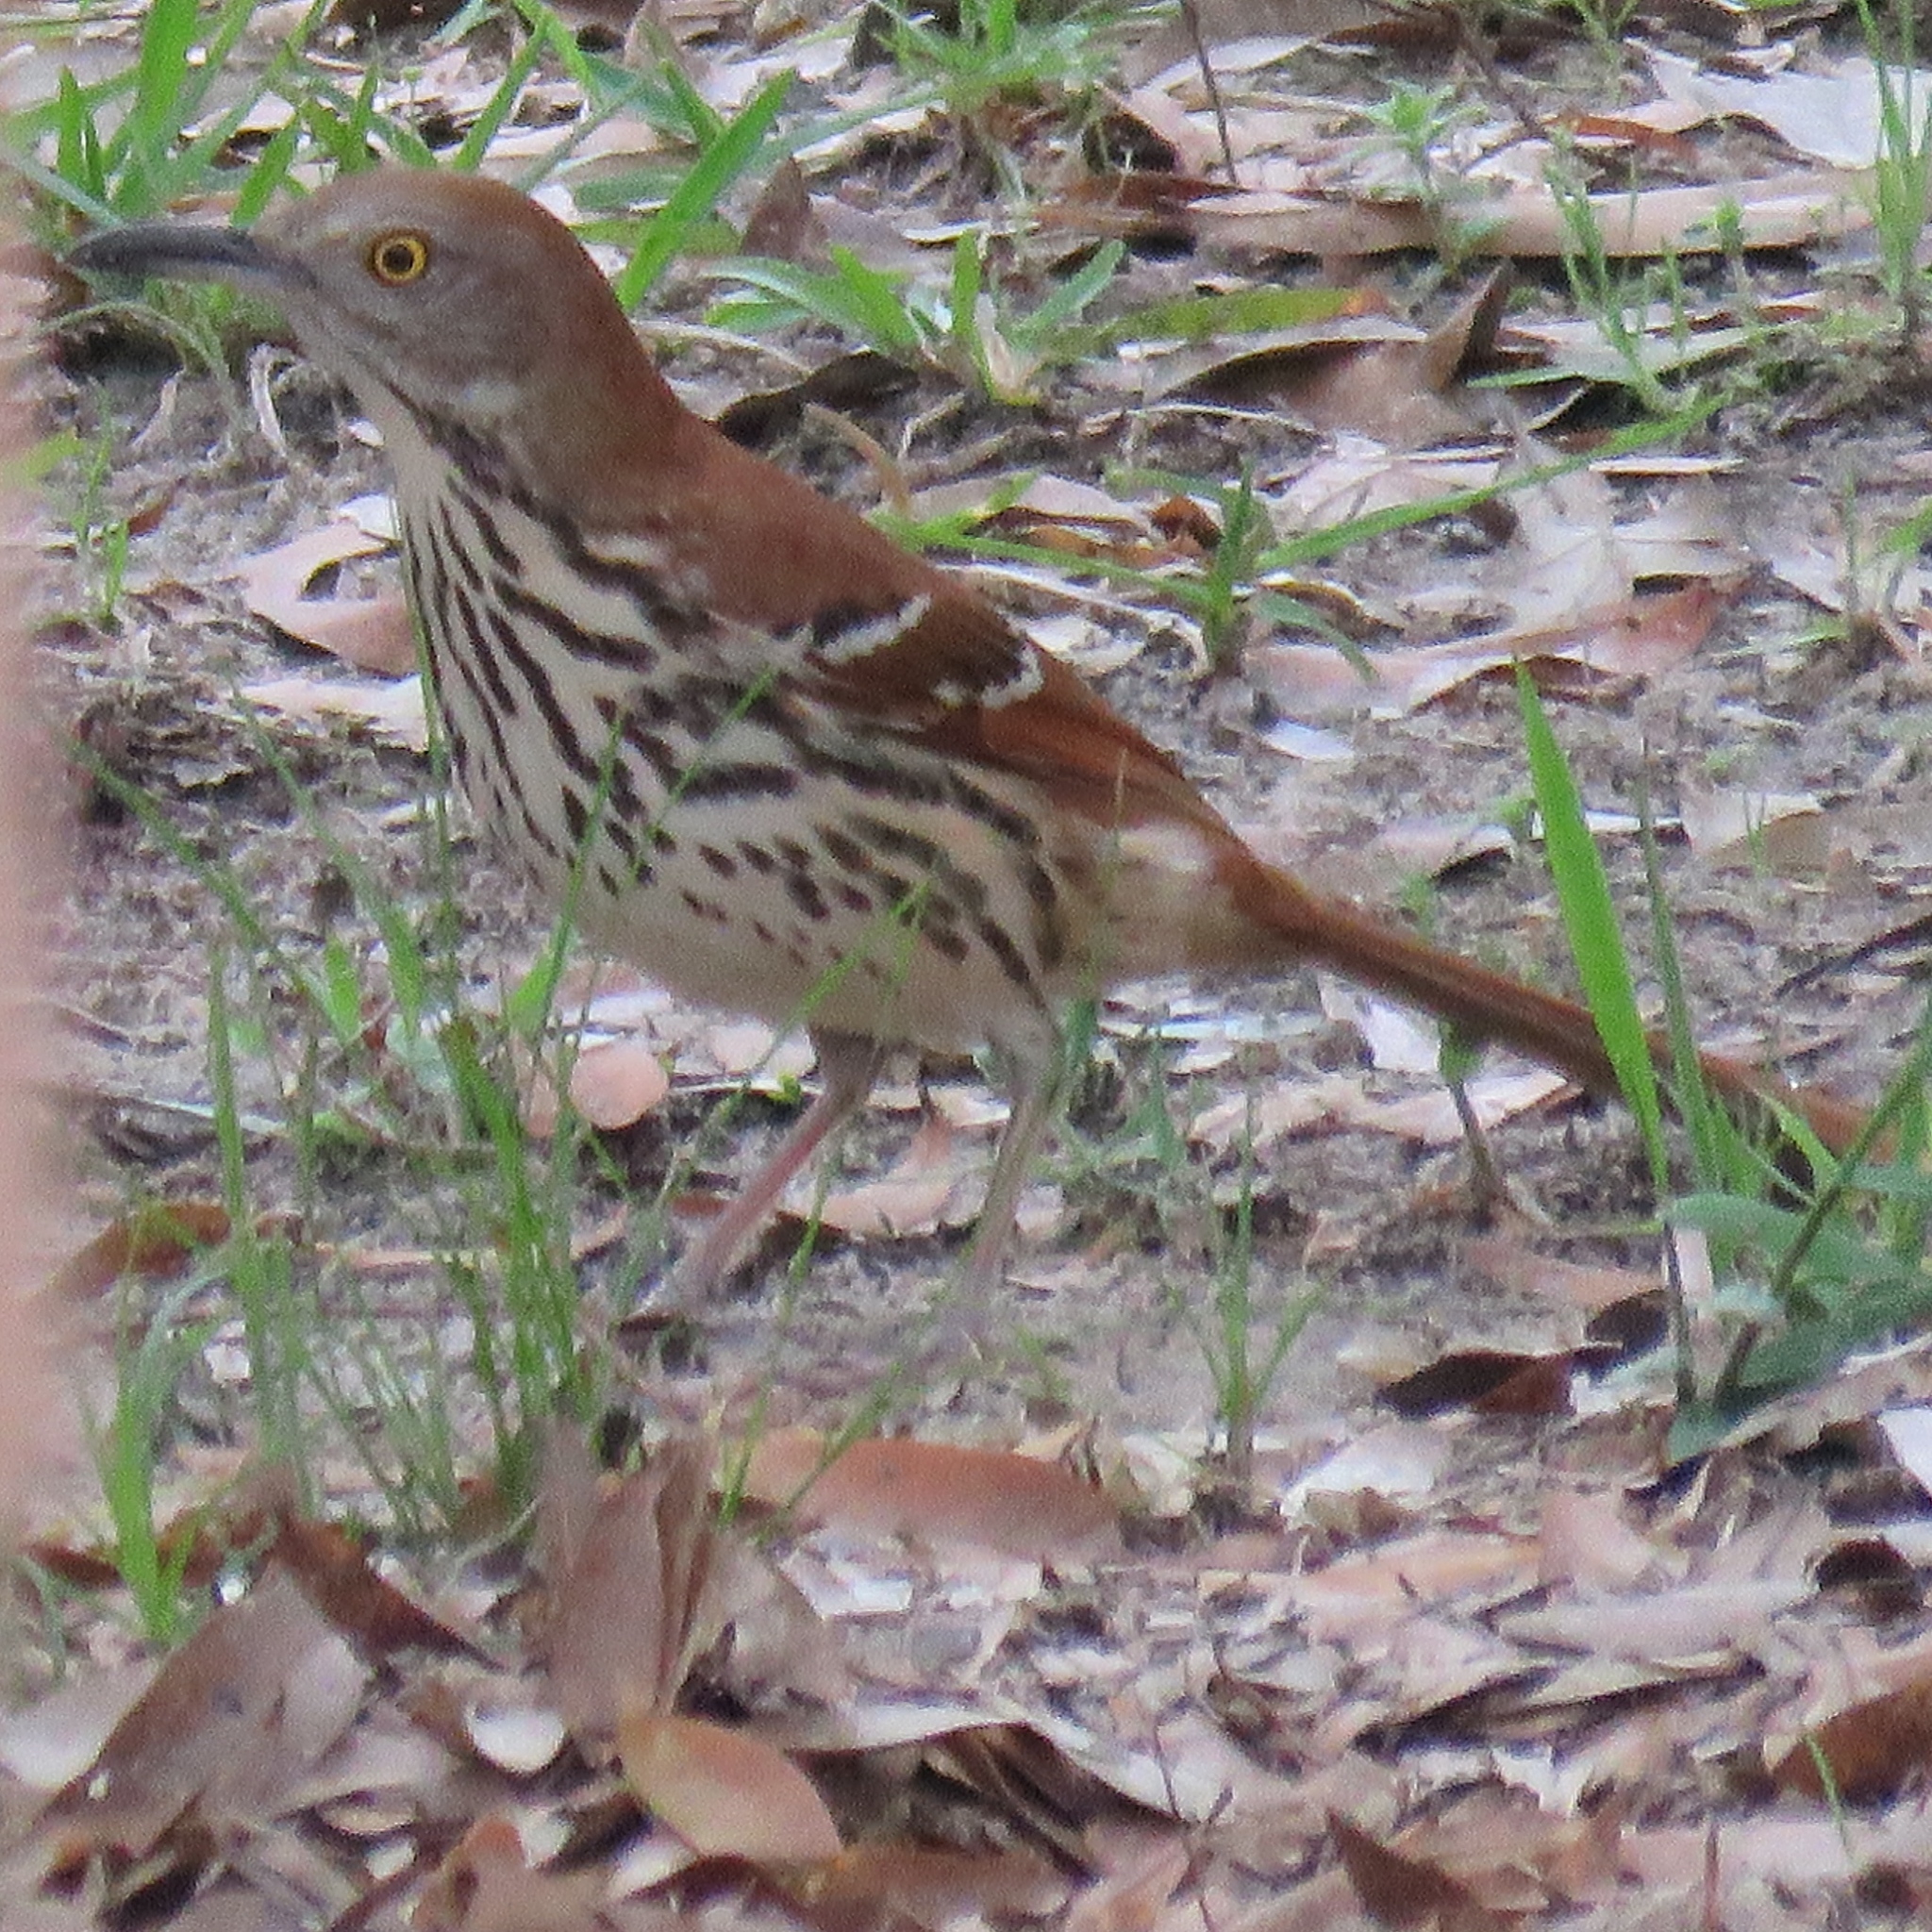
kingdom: Animalia
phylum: Chordata
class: Aves
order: Passeriformes
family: Mimidae
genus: Toxostoma
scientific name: Toxostoma rufum
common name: Brown thrasher
